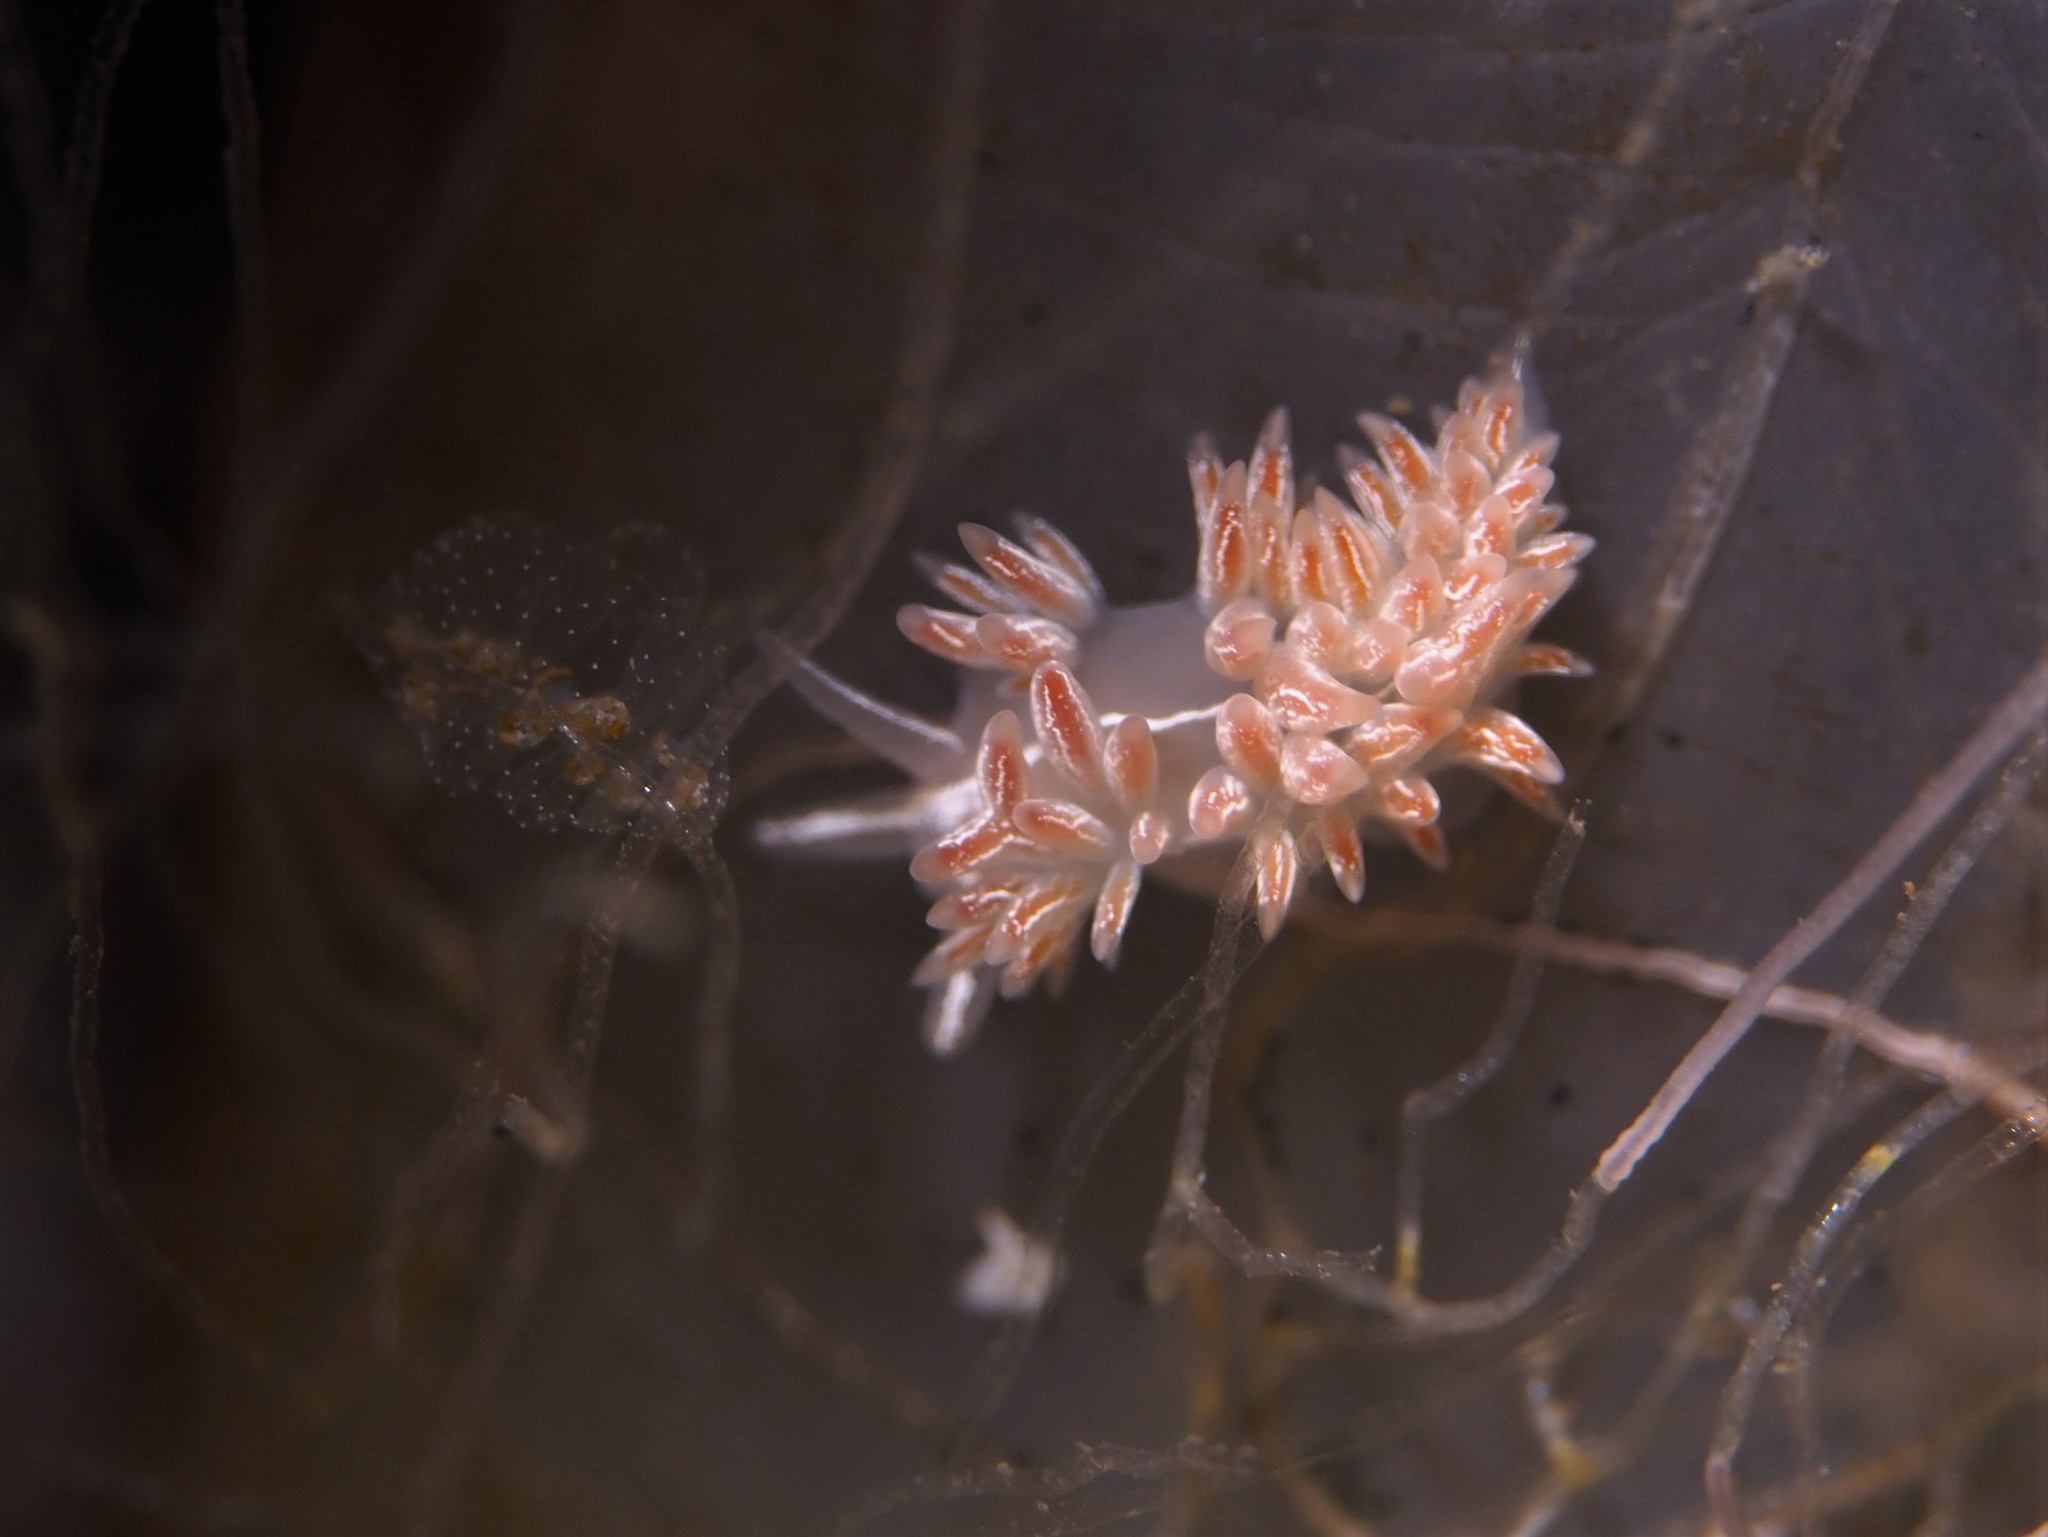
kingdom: Animalia
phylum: Mollusca
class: Gastropoda
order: Nudibranchia
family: Coryphellidae
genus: Coryphella
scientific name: Coryphella chriskaugei
